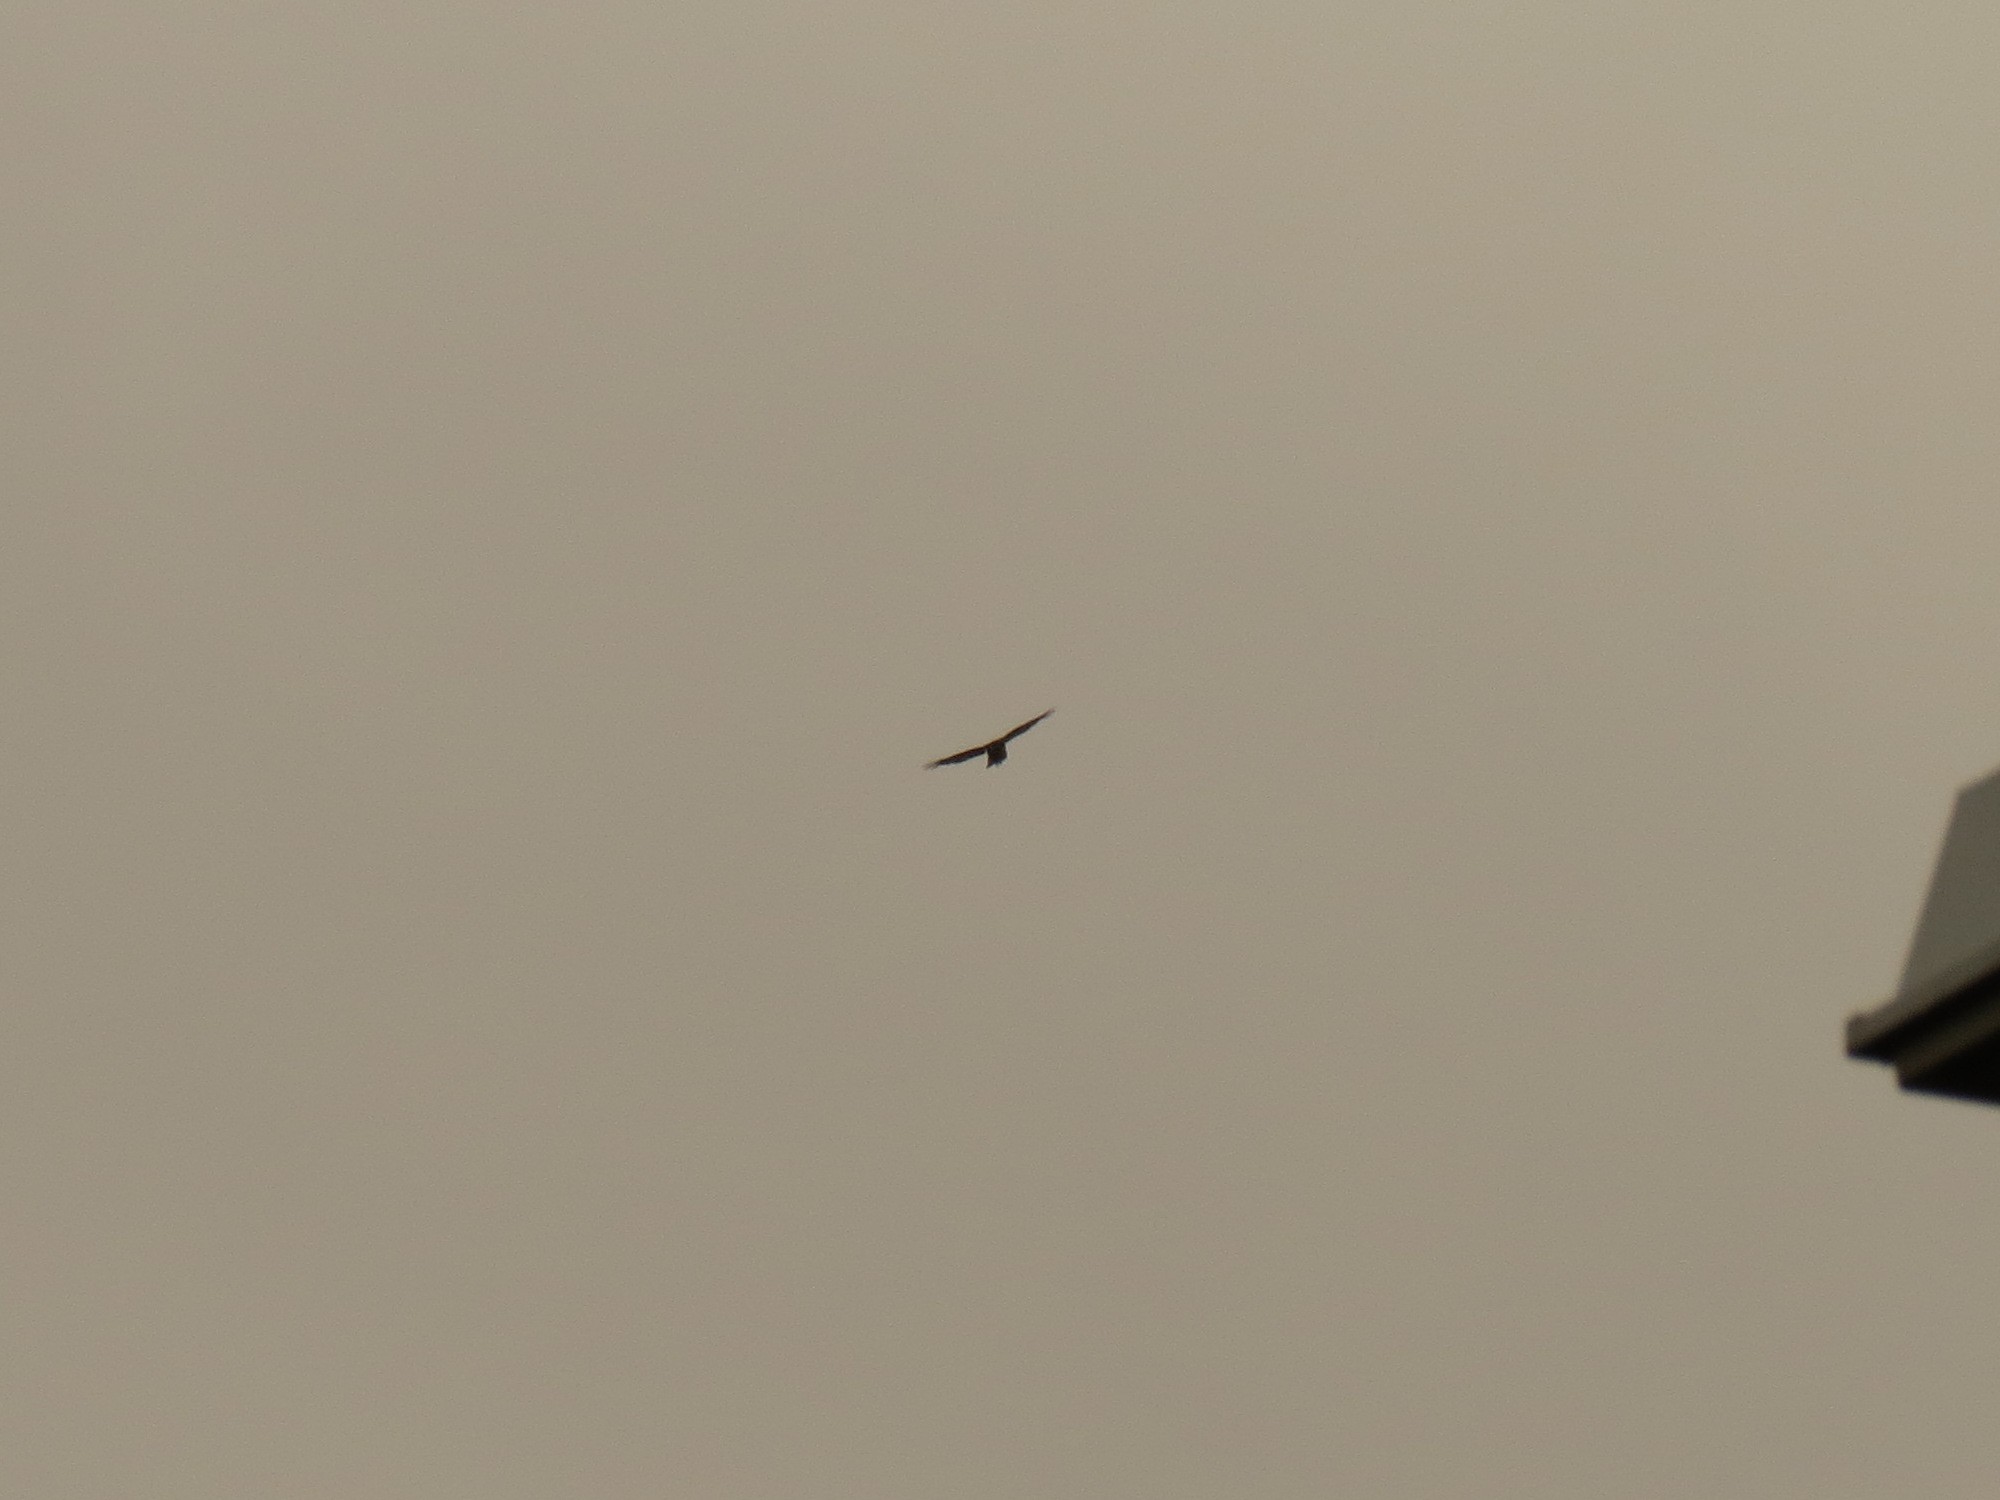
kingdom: Animalia
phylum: Chordata
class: Aves
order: Accipitriformes
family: Accipitridae
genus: Accipiter
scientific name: Accipiter nisus
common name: Eurasian sparrowhawk
